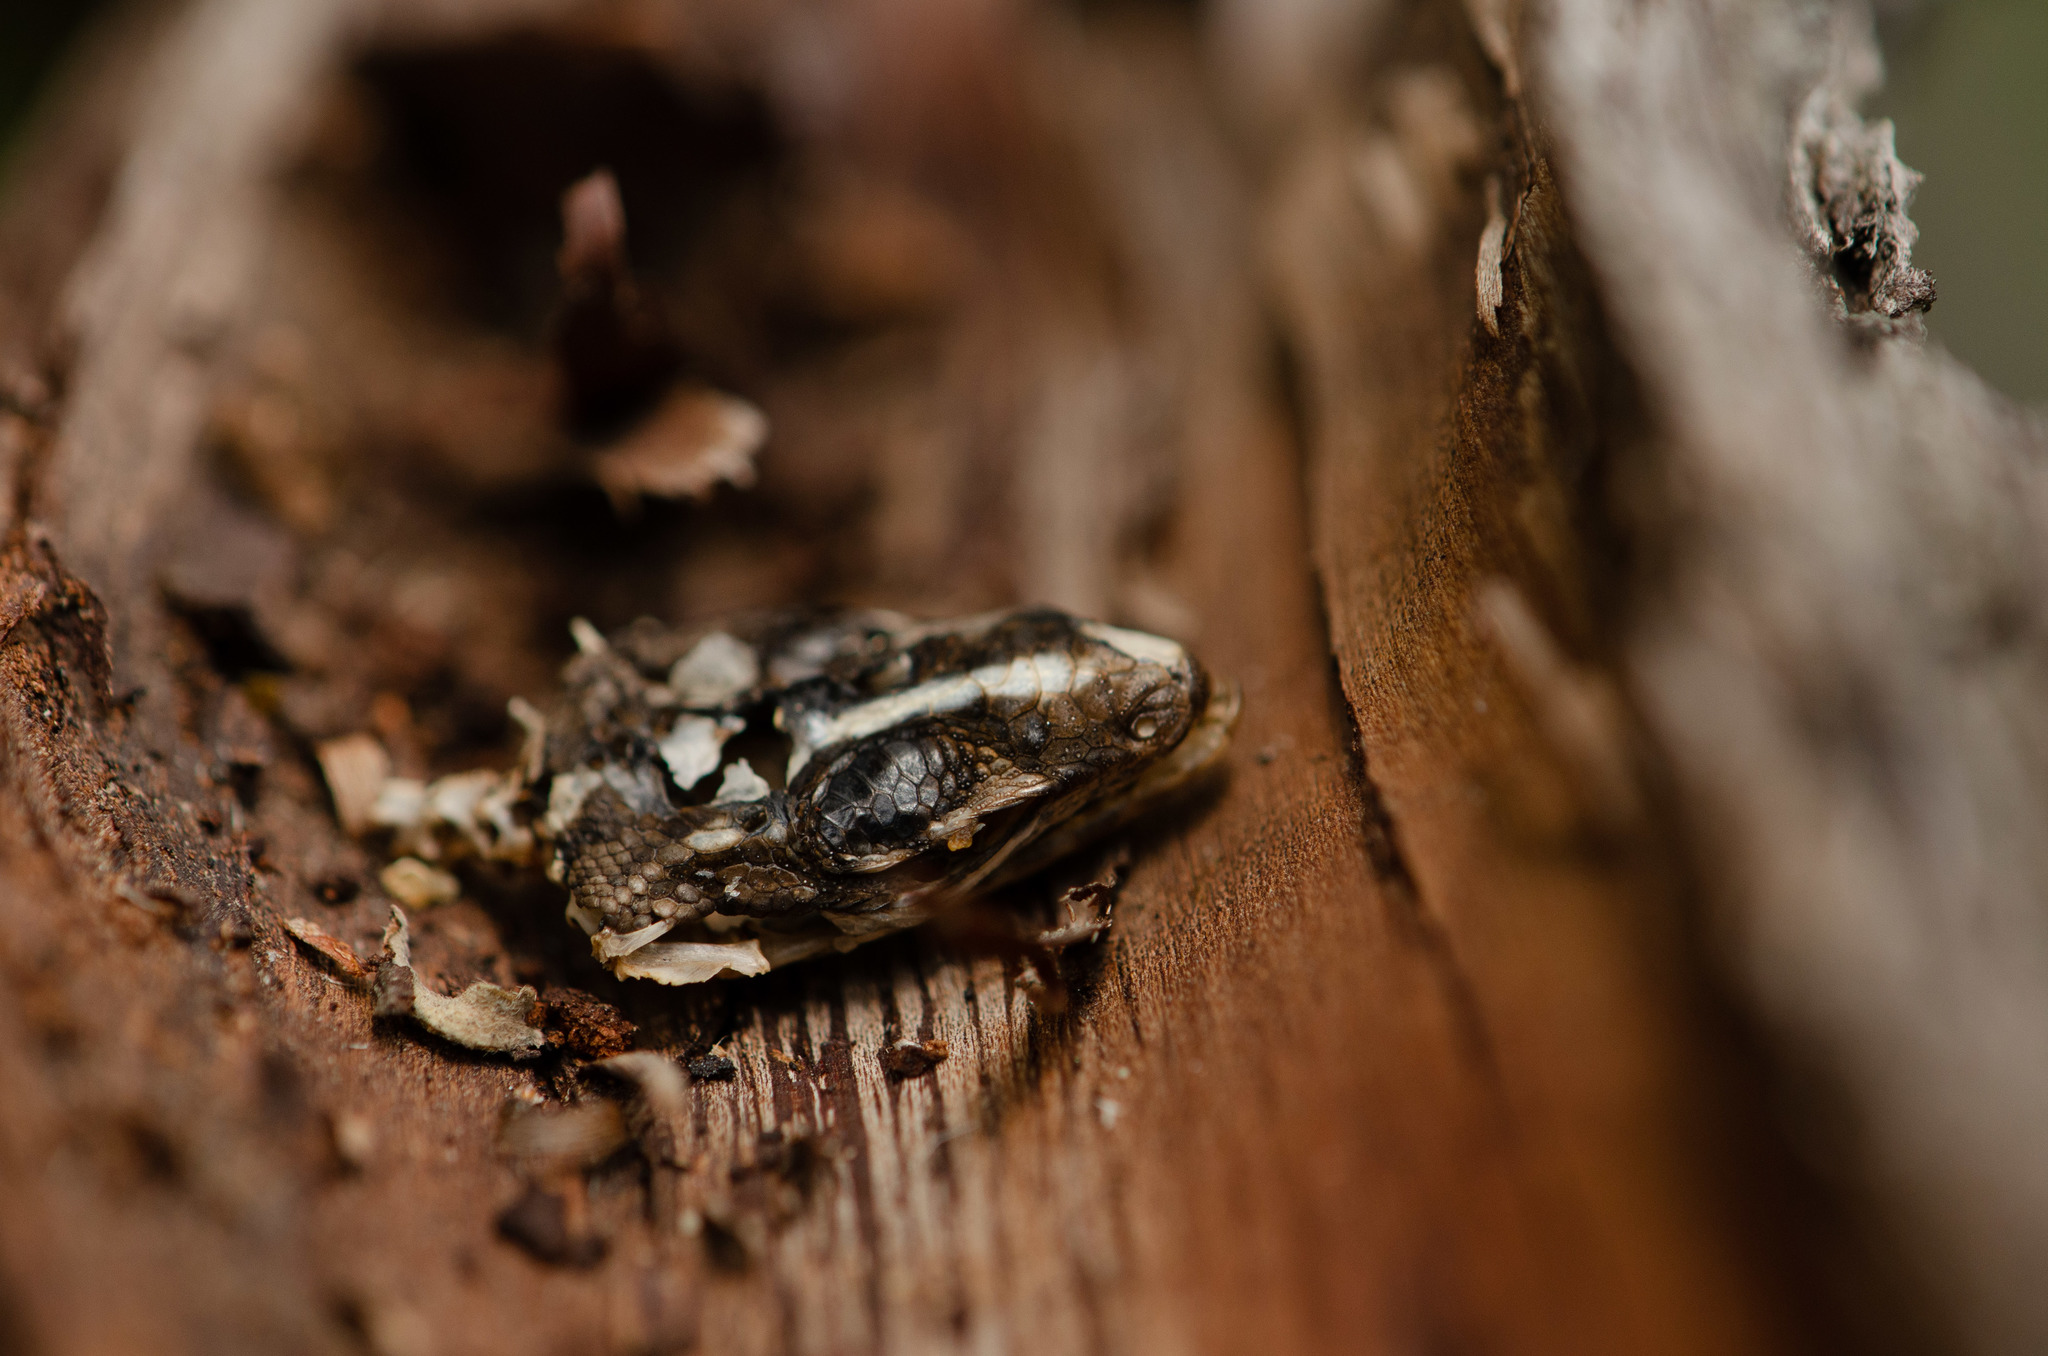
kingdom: Animalia
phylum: Chordata
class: Squamata
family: Tropiduridae
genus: Tropidurus
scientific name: Tropidurus semitaeniatus
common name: Striped lava lizard
